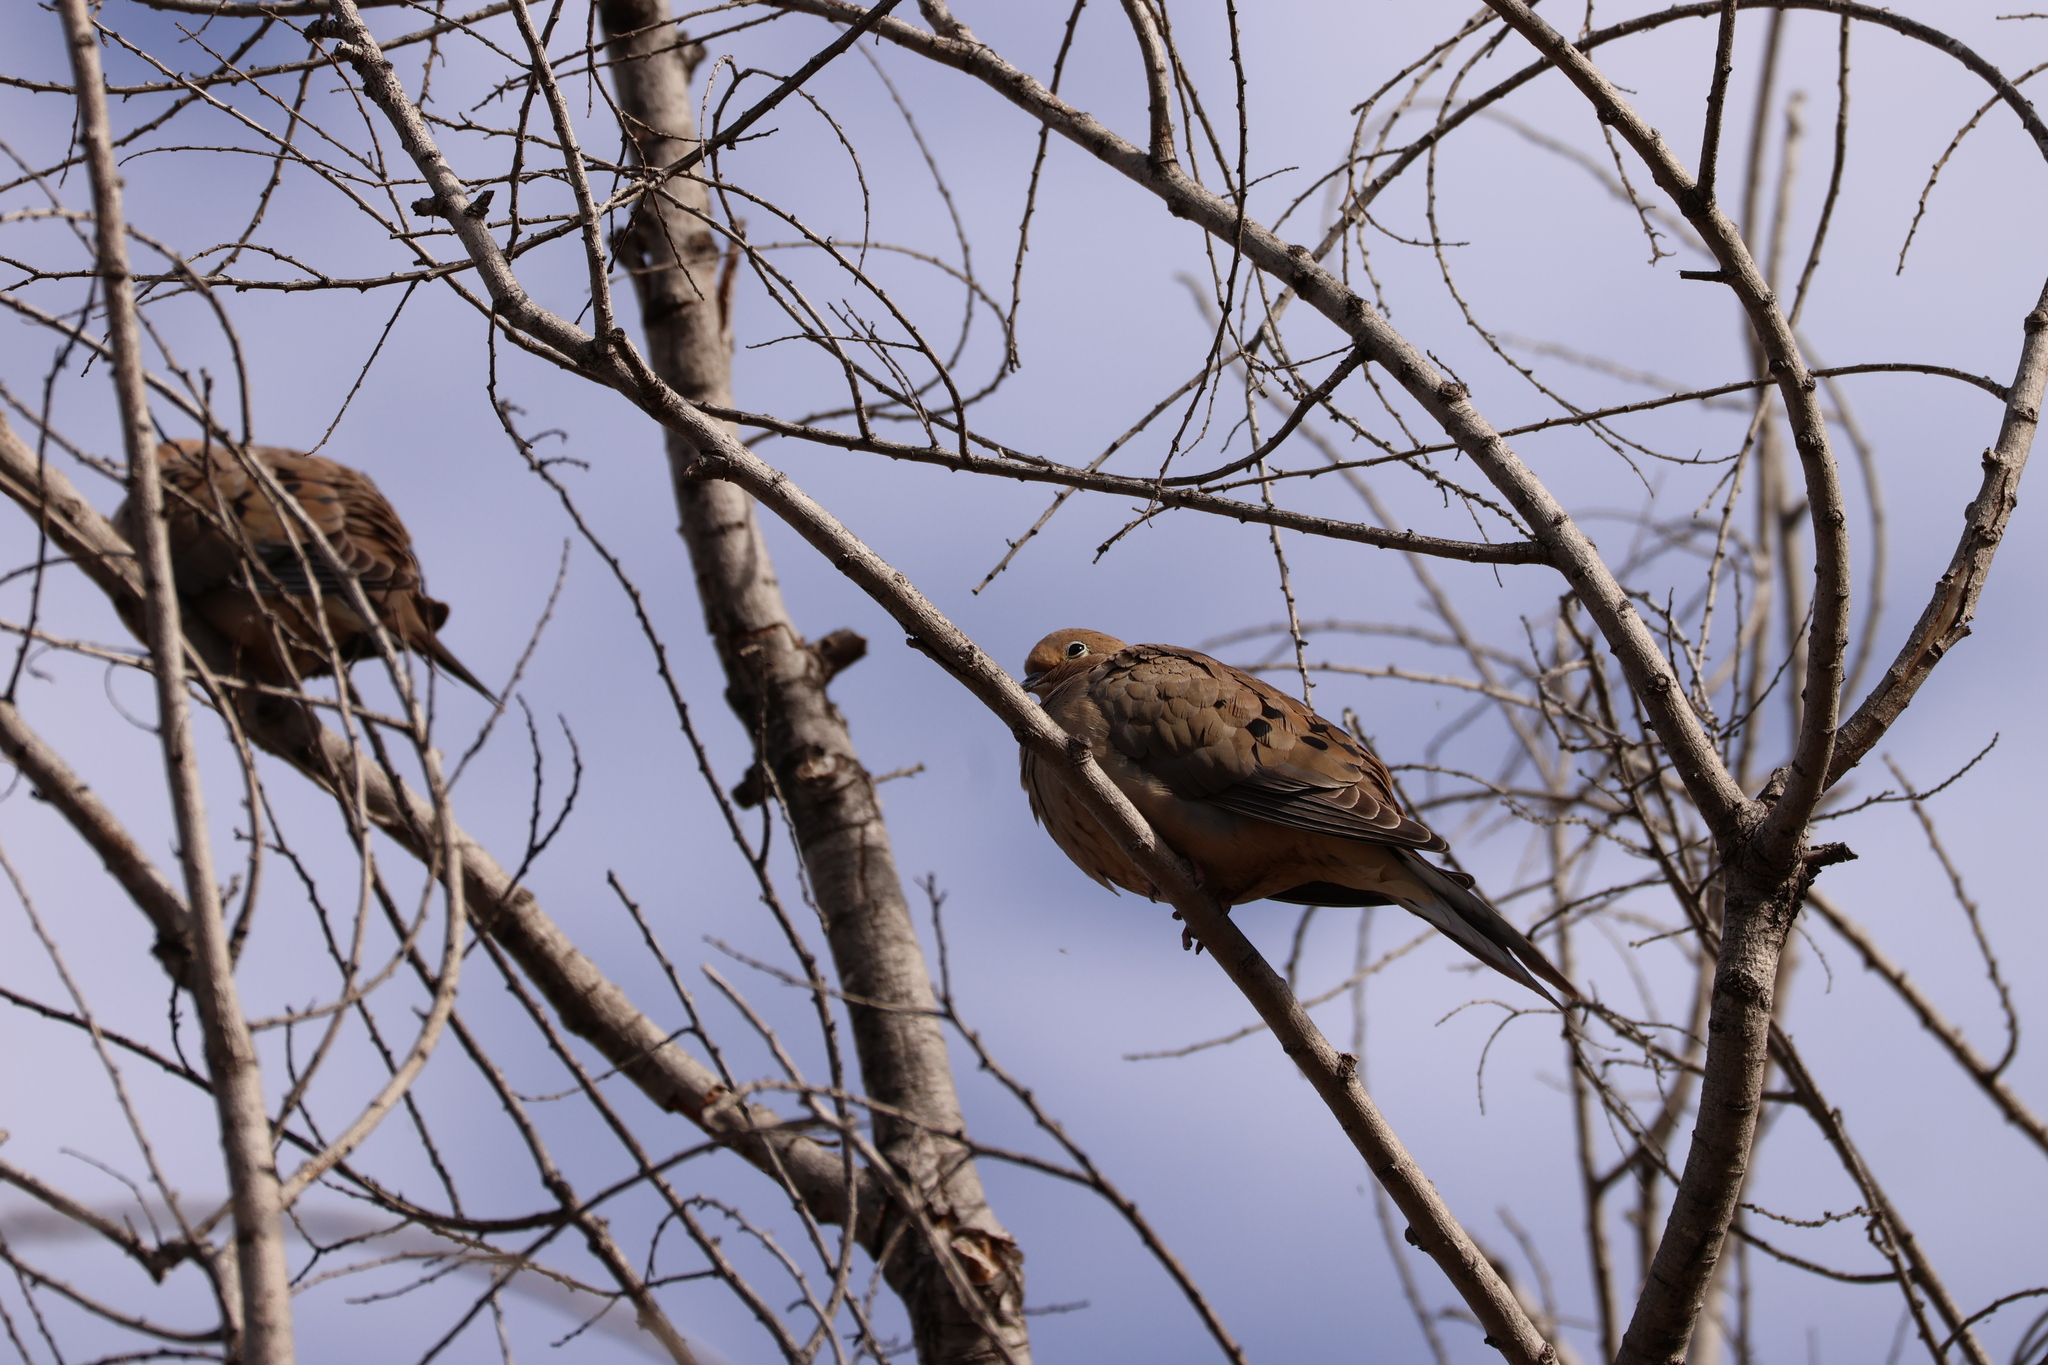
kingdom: Animalia
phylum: Chordata
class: Aves
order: Columbiformes
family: Columbidae
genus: Zenaida
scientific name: Zenaida macroura
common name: Mourning dove
